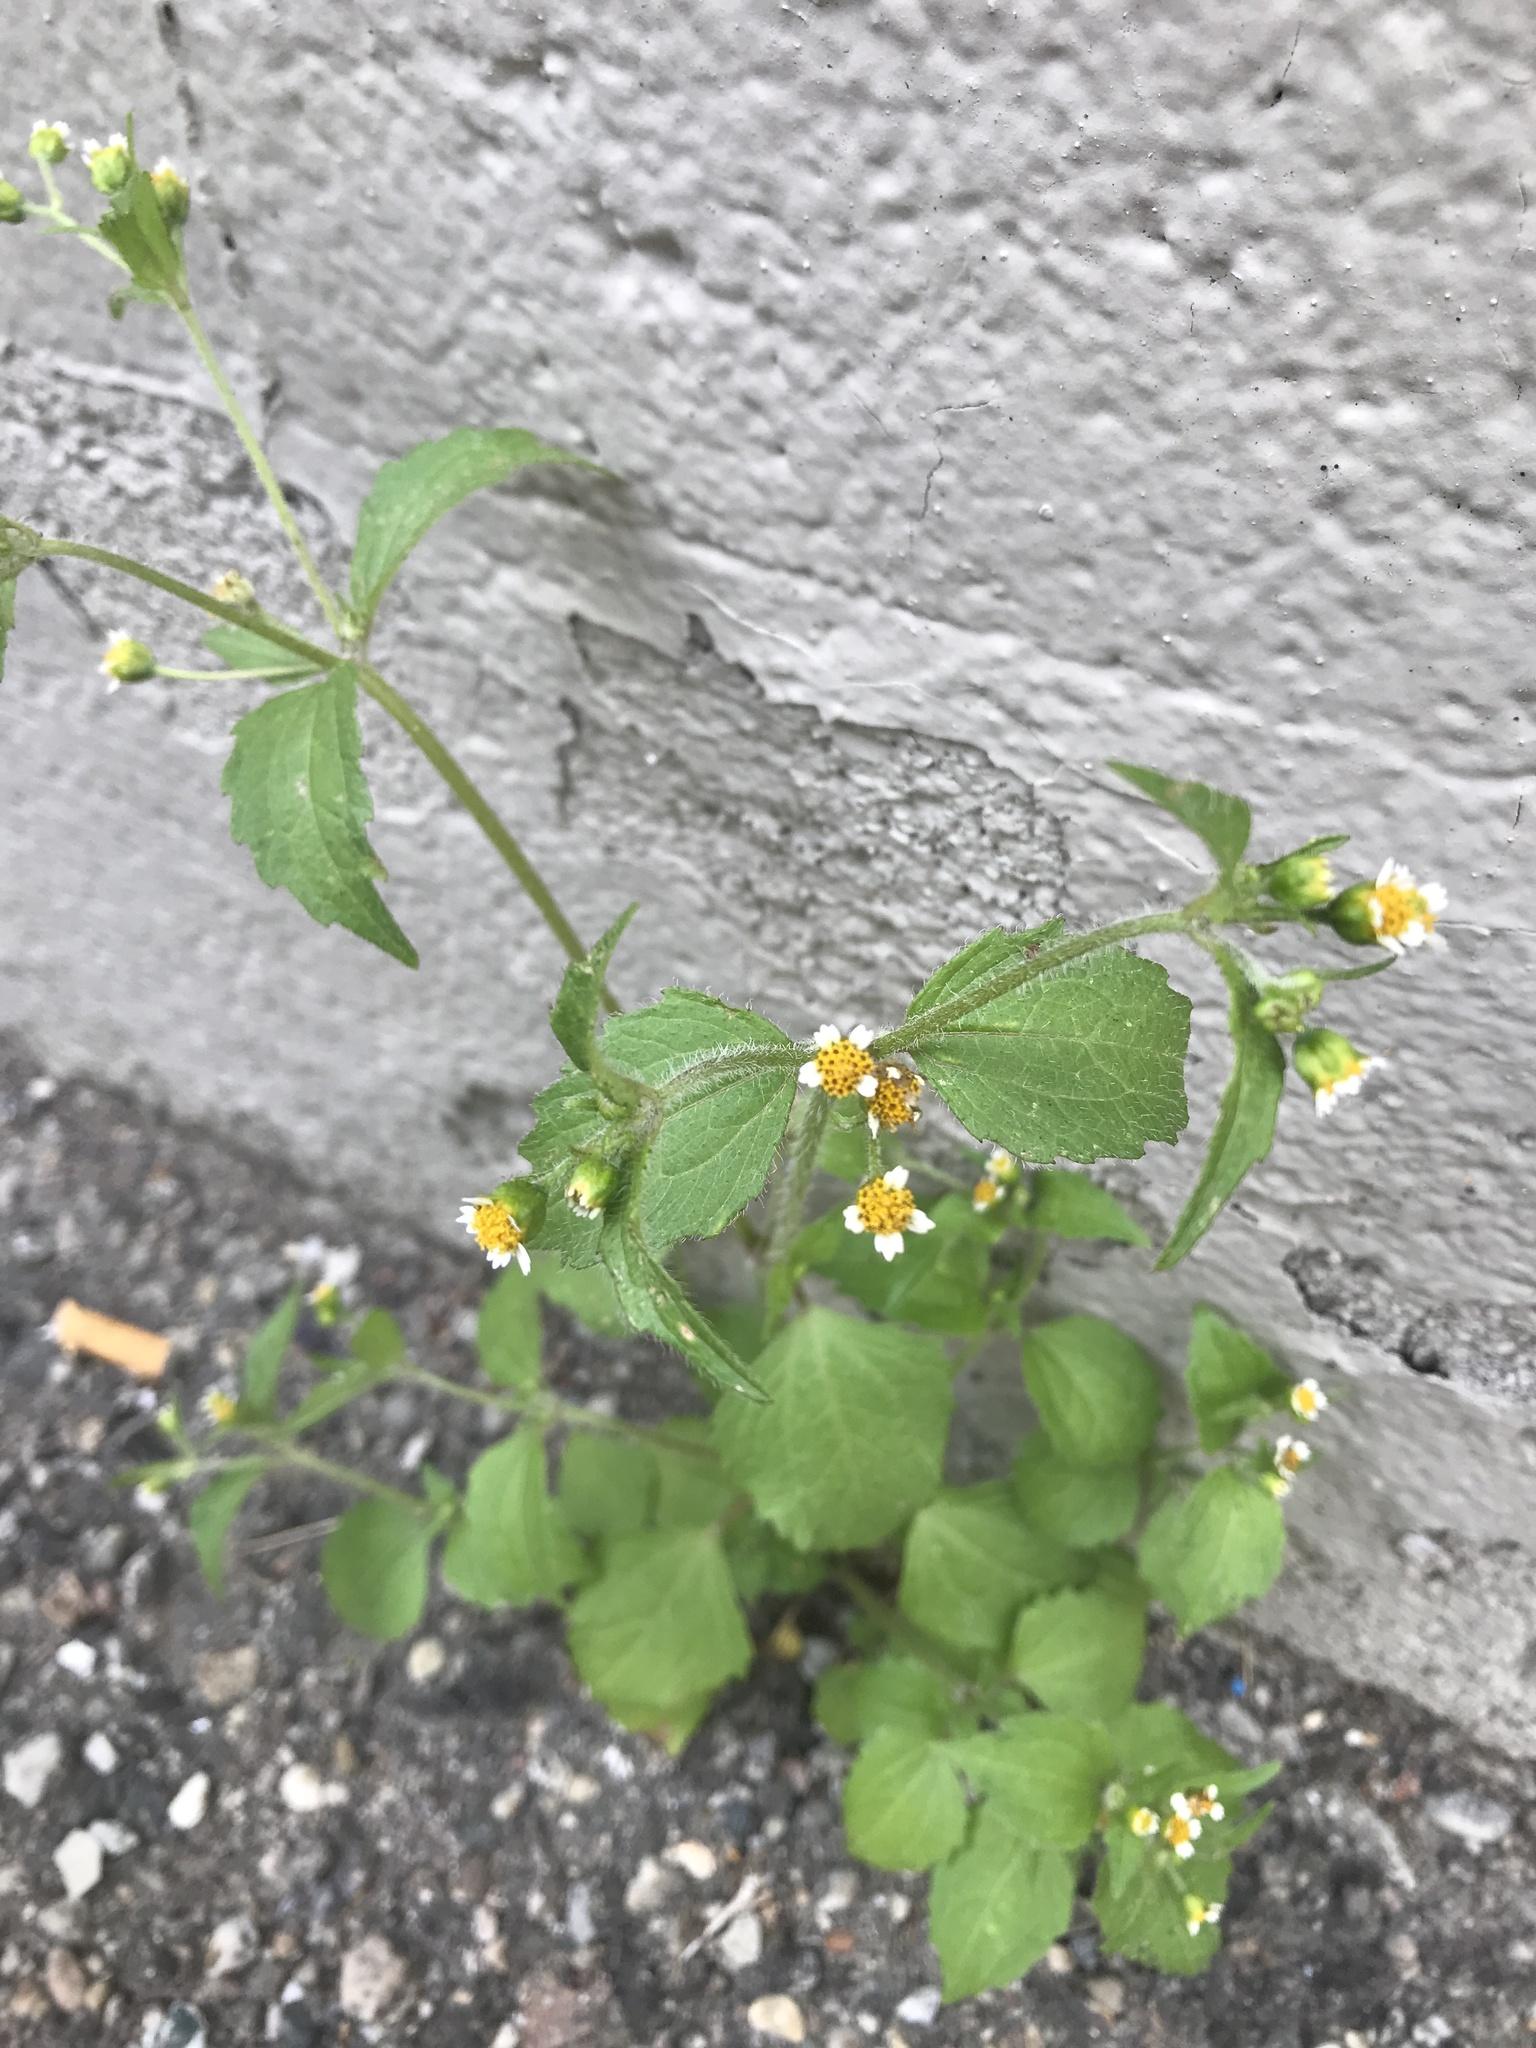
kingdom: Plantae
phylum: Tracheophyta
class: Magnoliopsida
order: Asterales
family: Asteraceae
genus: Galinsoga
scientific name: Galinsoga quadriradiata
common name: Shaggy soldier
